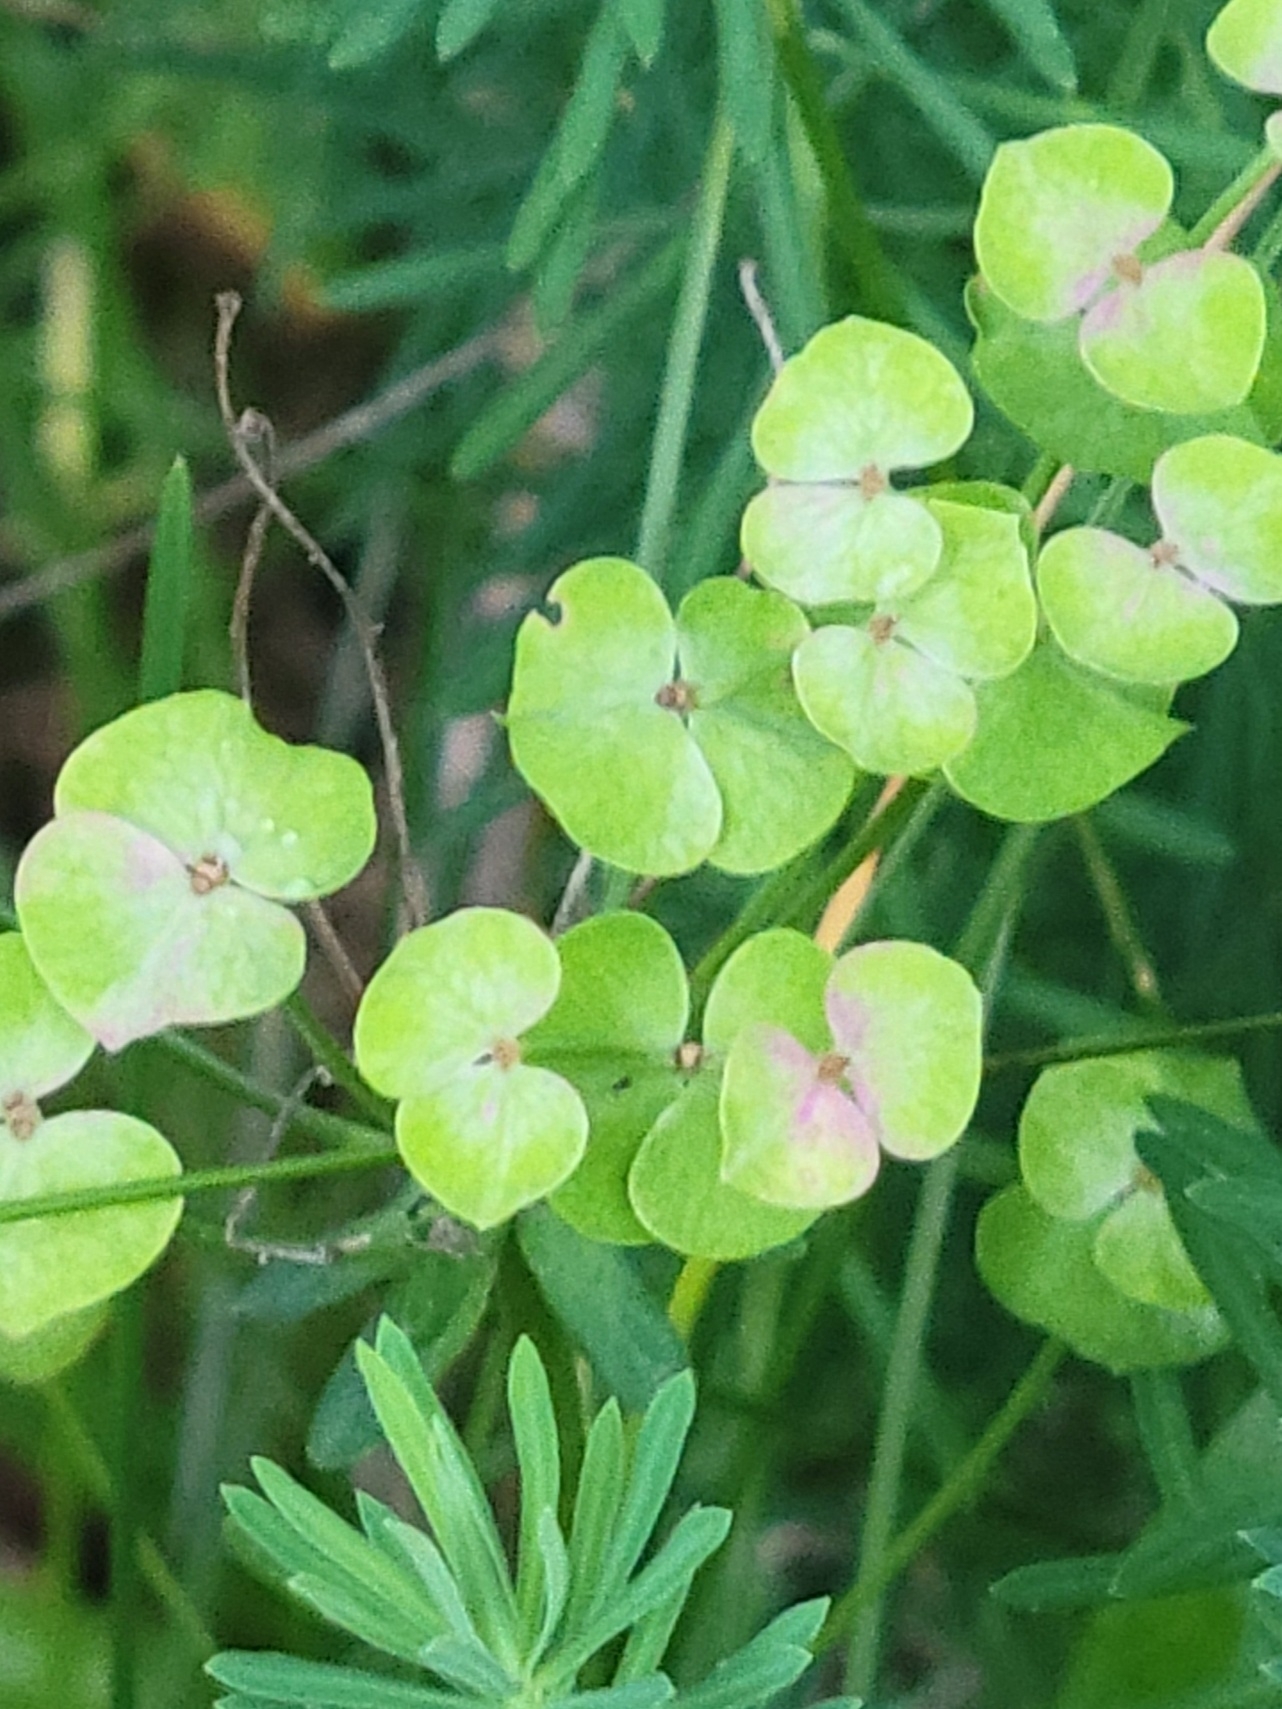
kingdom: Plantae
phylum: Tracheophyta
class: Magnoliopsida
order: Malpighiales
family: Euphorbiaceae
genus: Euphorbia
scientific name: Euphorbia cyparissias
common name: Cypress spurge
